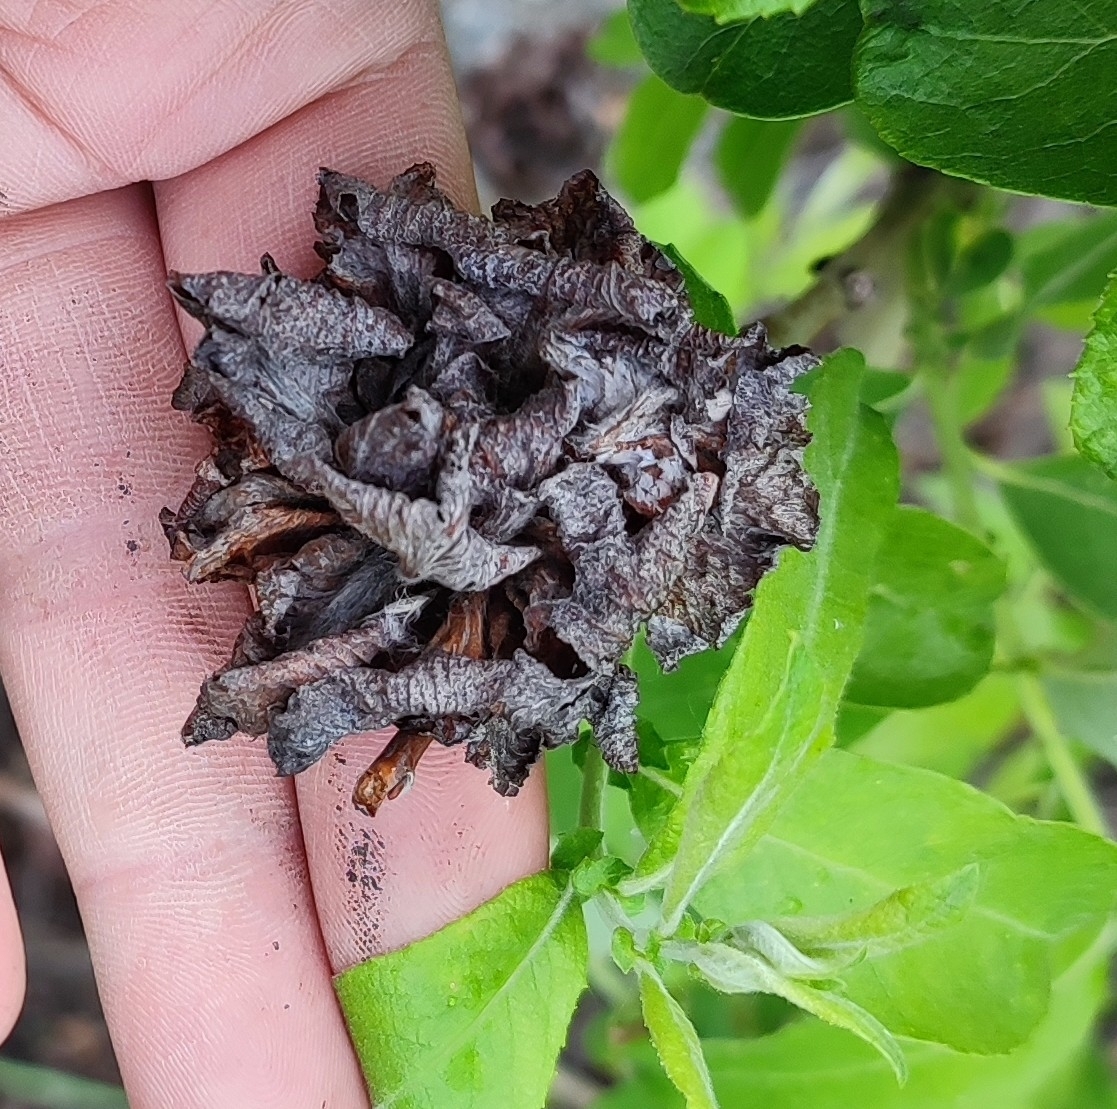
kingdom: Animalia
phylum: Arthropoda
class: Insecta
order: Diptera
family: Cecidomyiidae
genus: Rabdophaga
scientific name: Rabdophaga rosaria
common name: Willow rose gall midge
